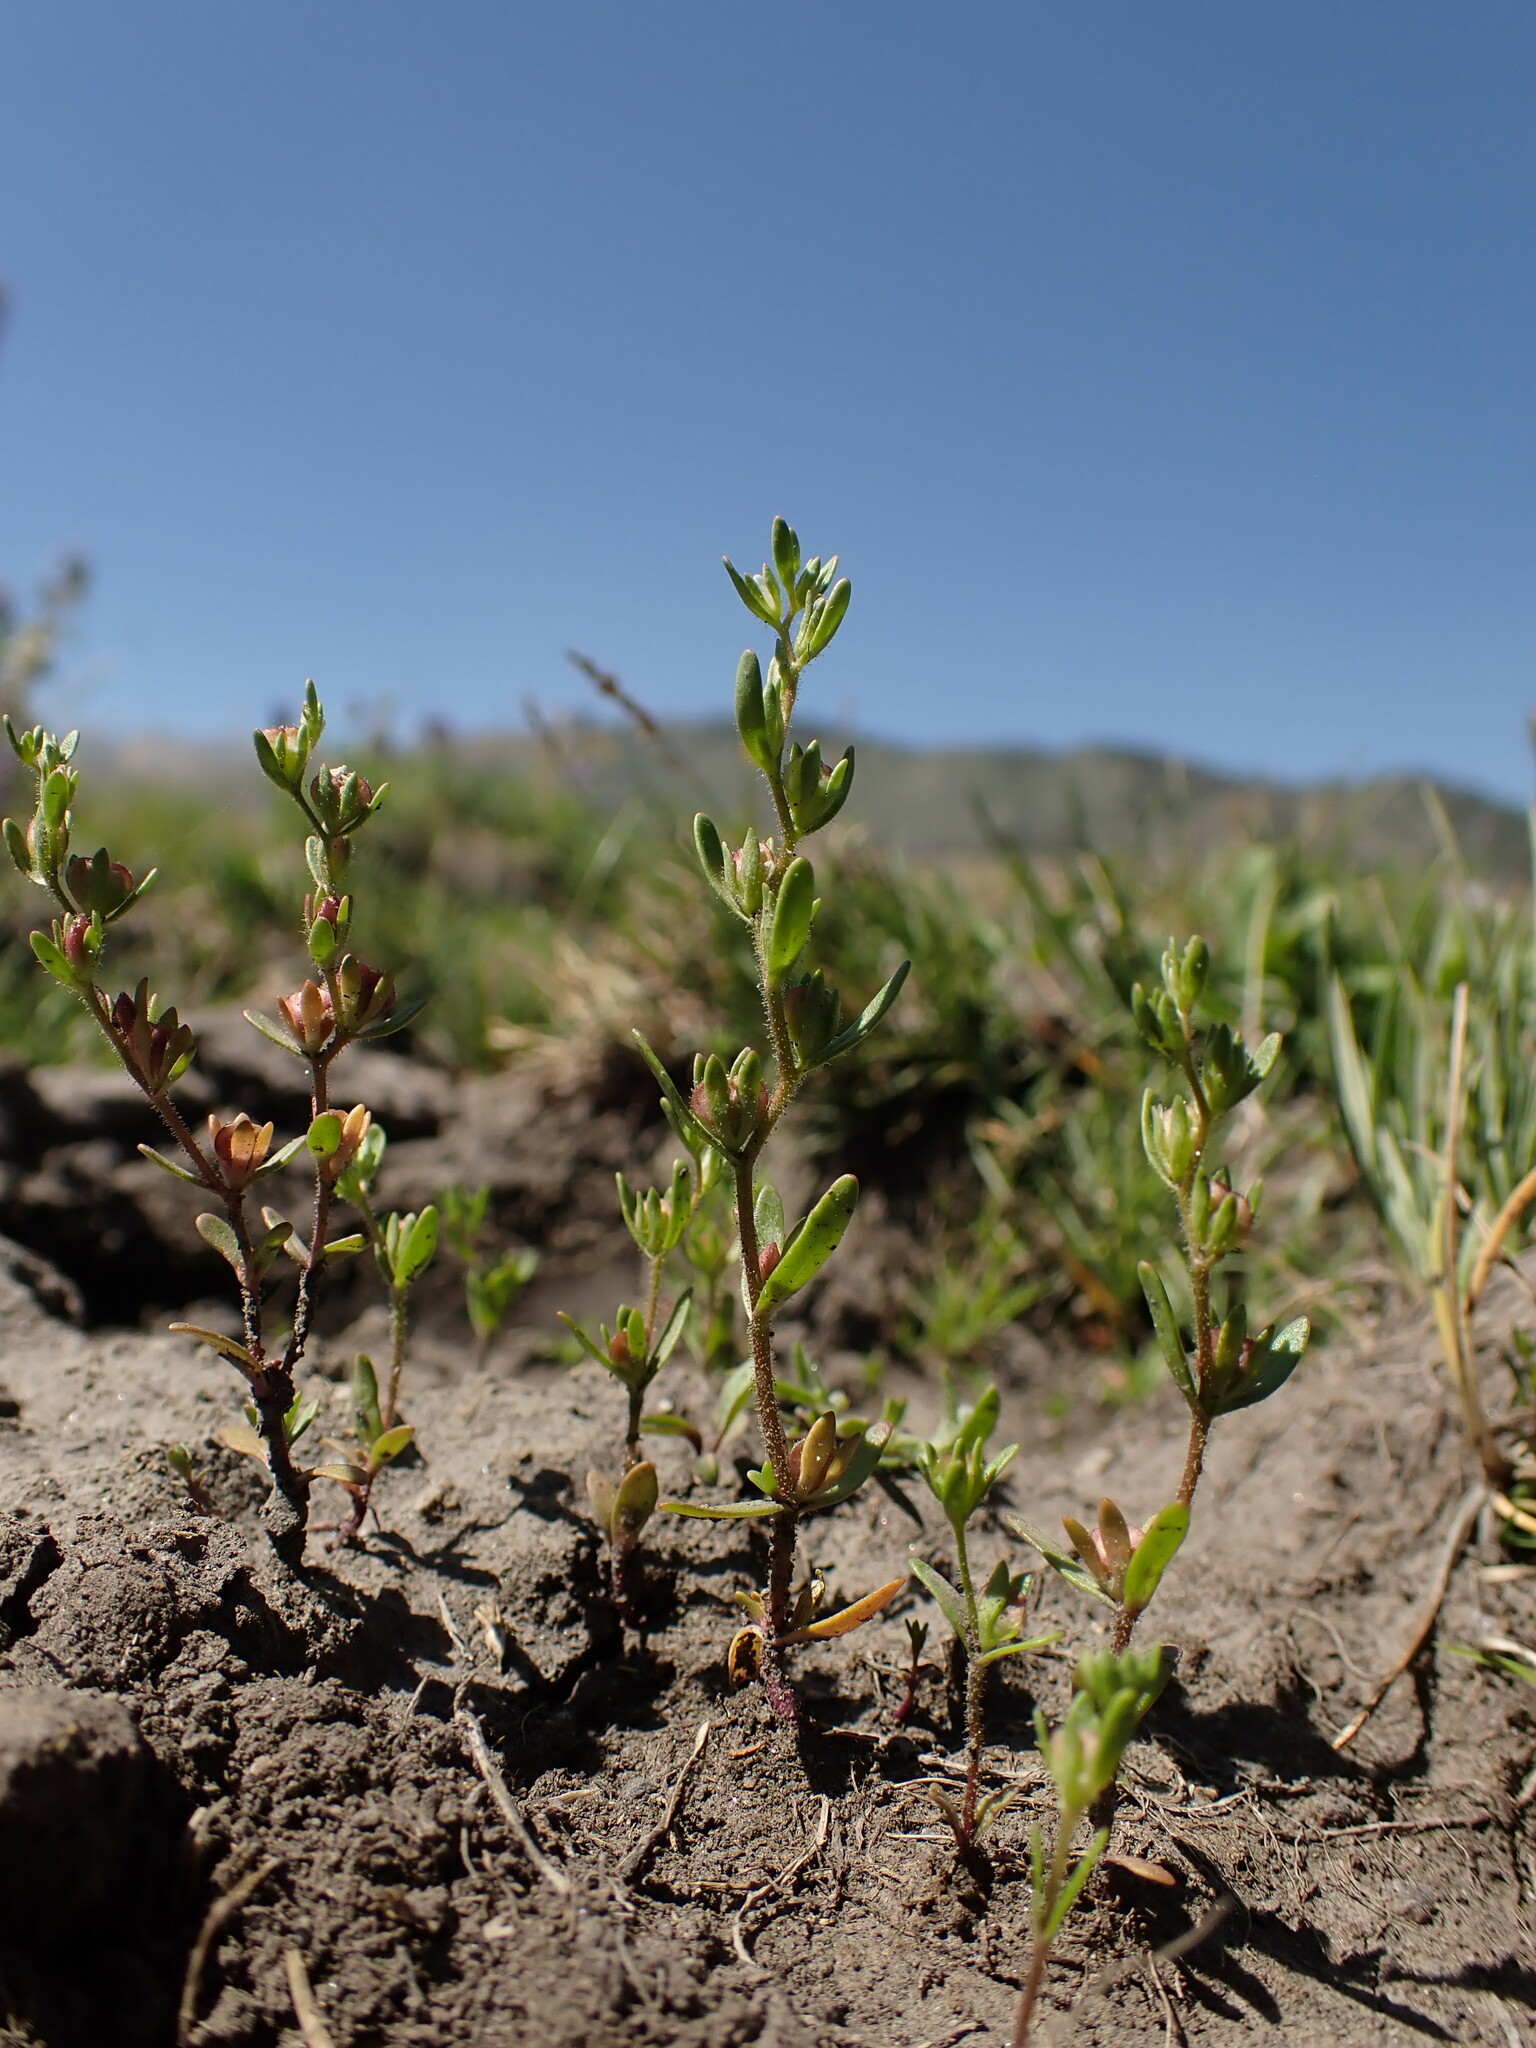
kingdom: Plantae
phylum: Tracheophyta
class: Magnoliopsida
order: Lamiales
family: Plantaginaceae
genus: Veronica
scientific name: Veronica peregrina
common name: Neckweed
